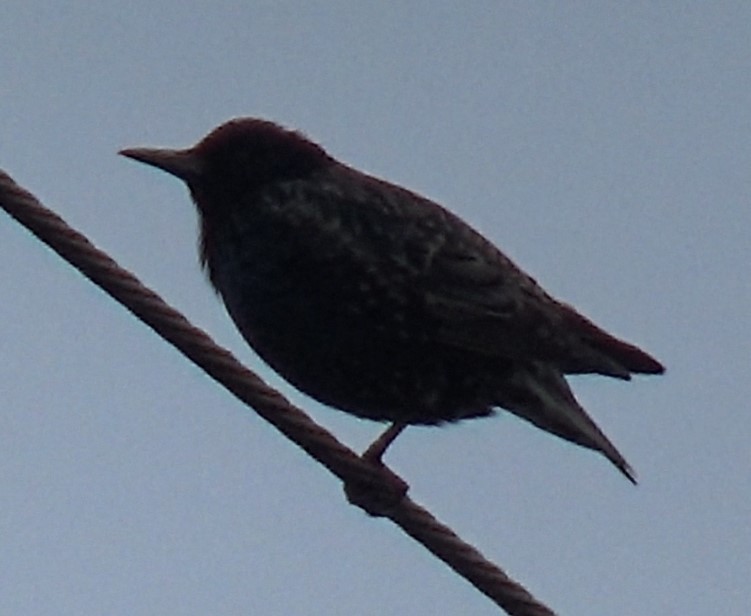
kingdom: Animalia
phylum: Chordata
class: Aves
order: Passeriformes
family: Sturnidae
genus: Sturnus
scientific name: Sturnus vulgaris
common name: Common starling
